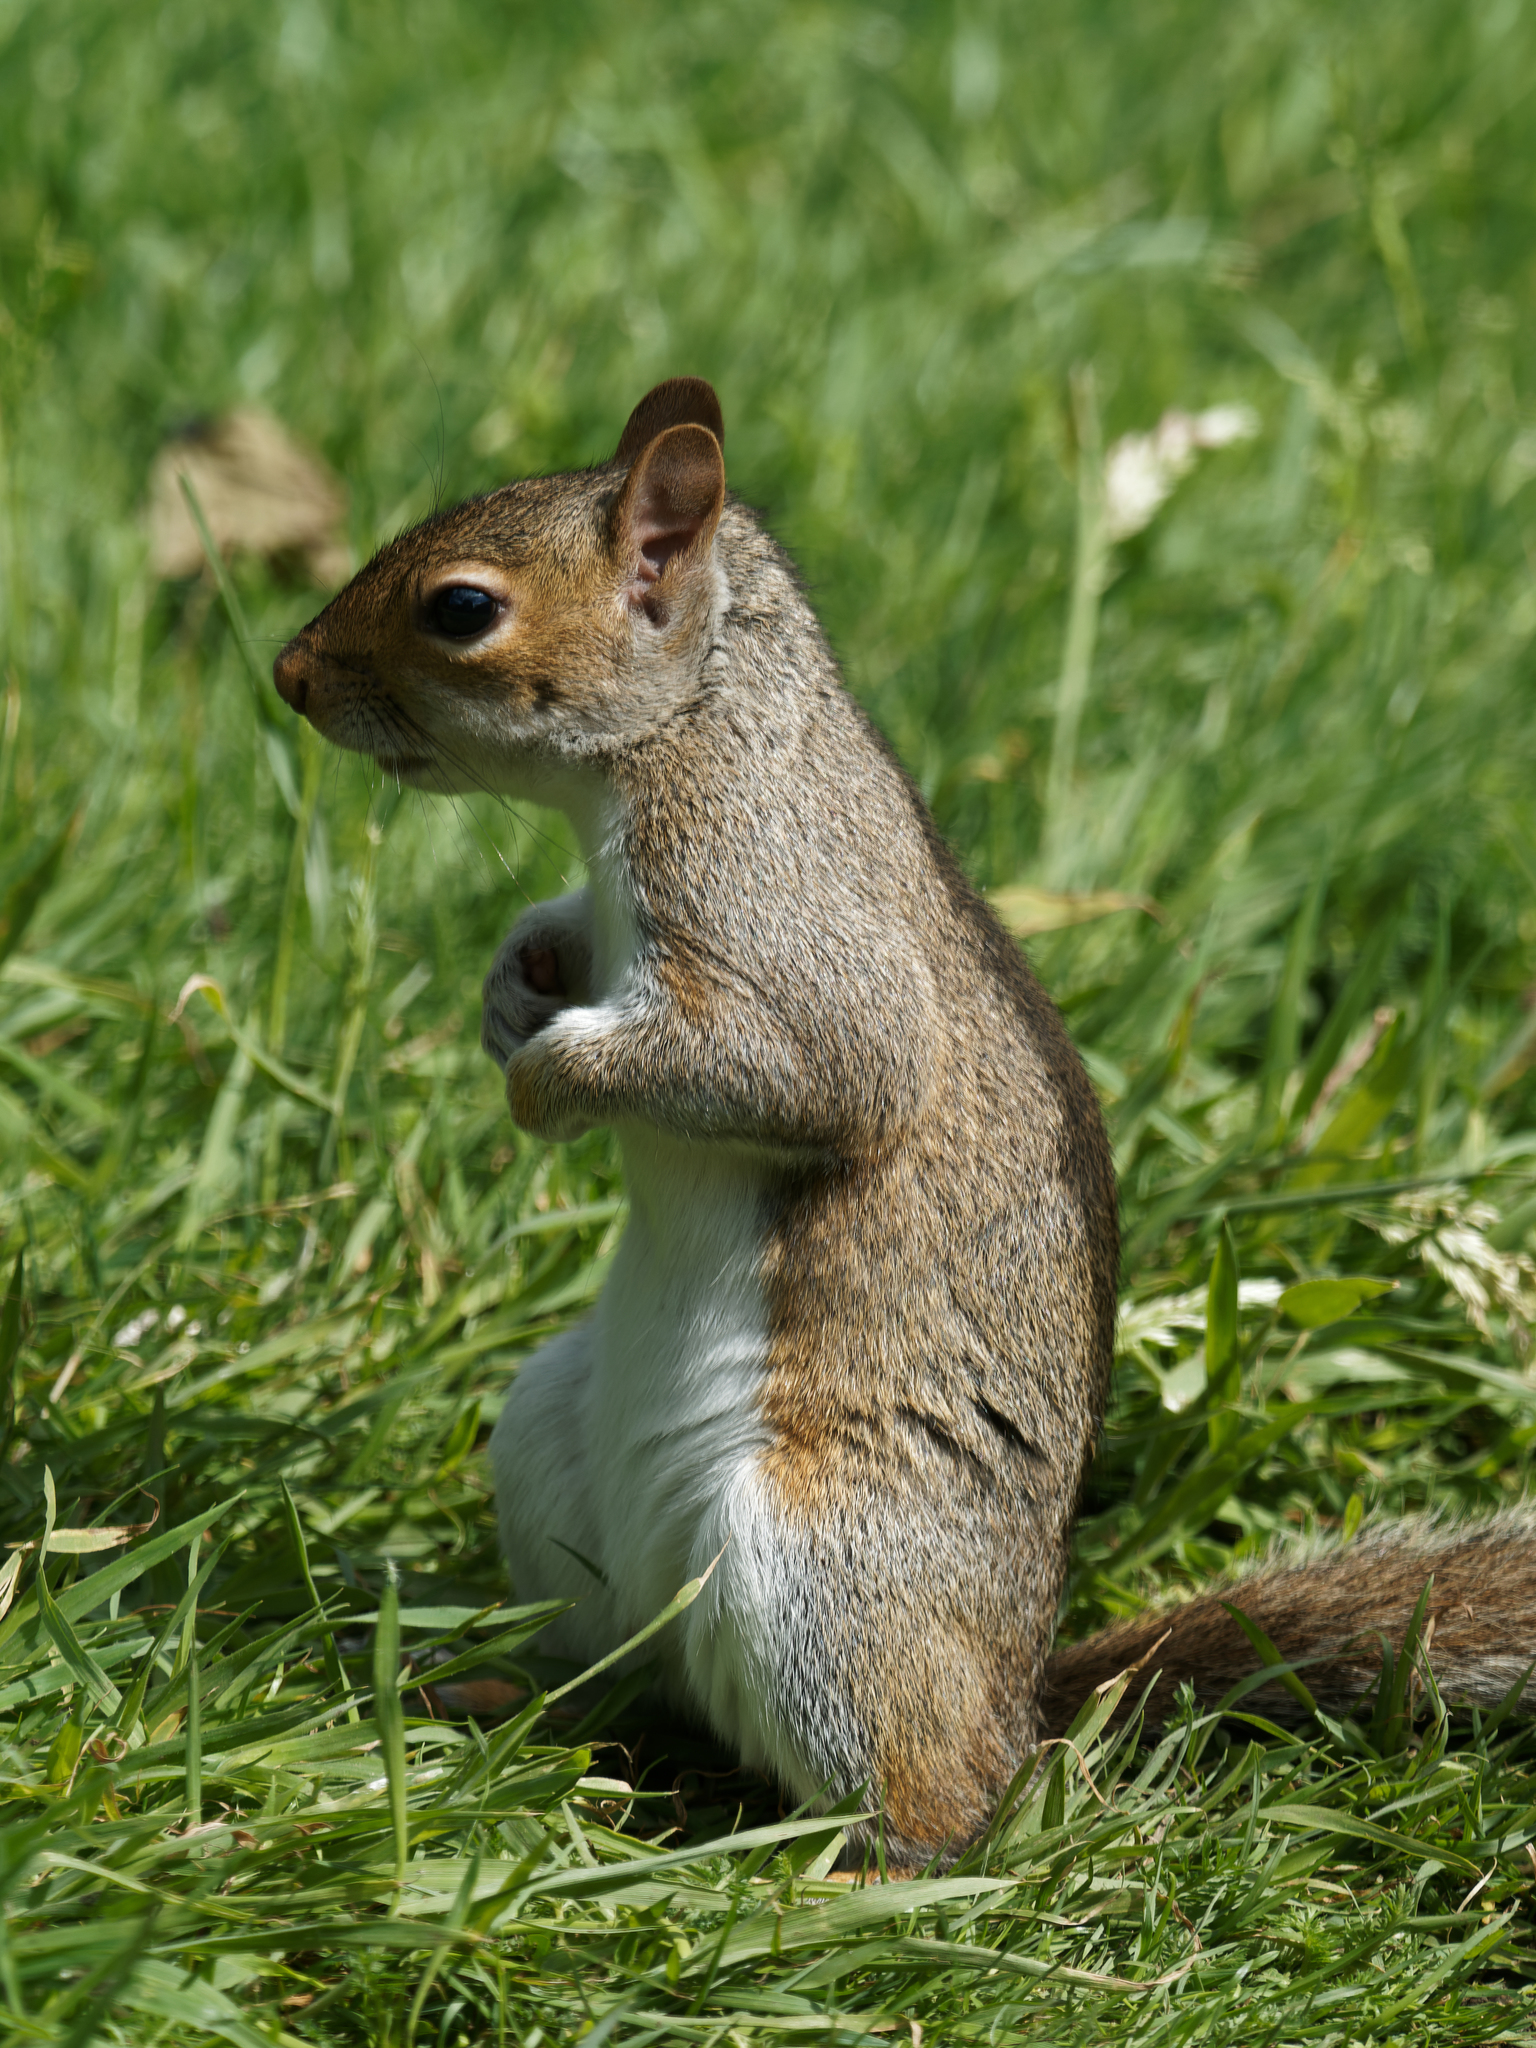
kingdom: Animalia
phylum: Chordata
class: Mammalia
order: Rodentia
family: Sciuridae
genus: Sciurus
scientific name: Sciurus carolinensis
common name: Eastern gray squirrel
